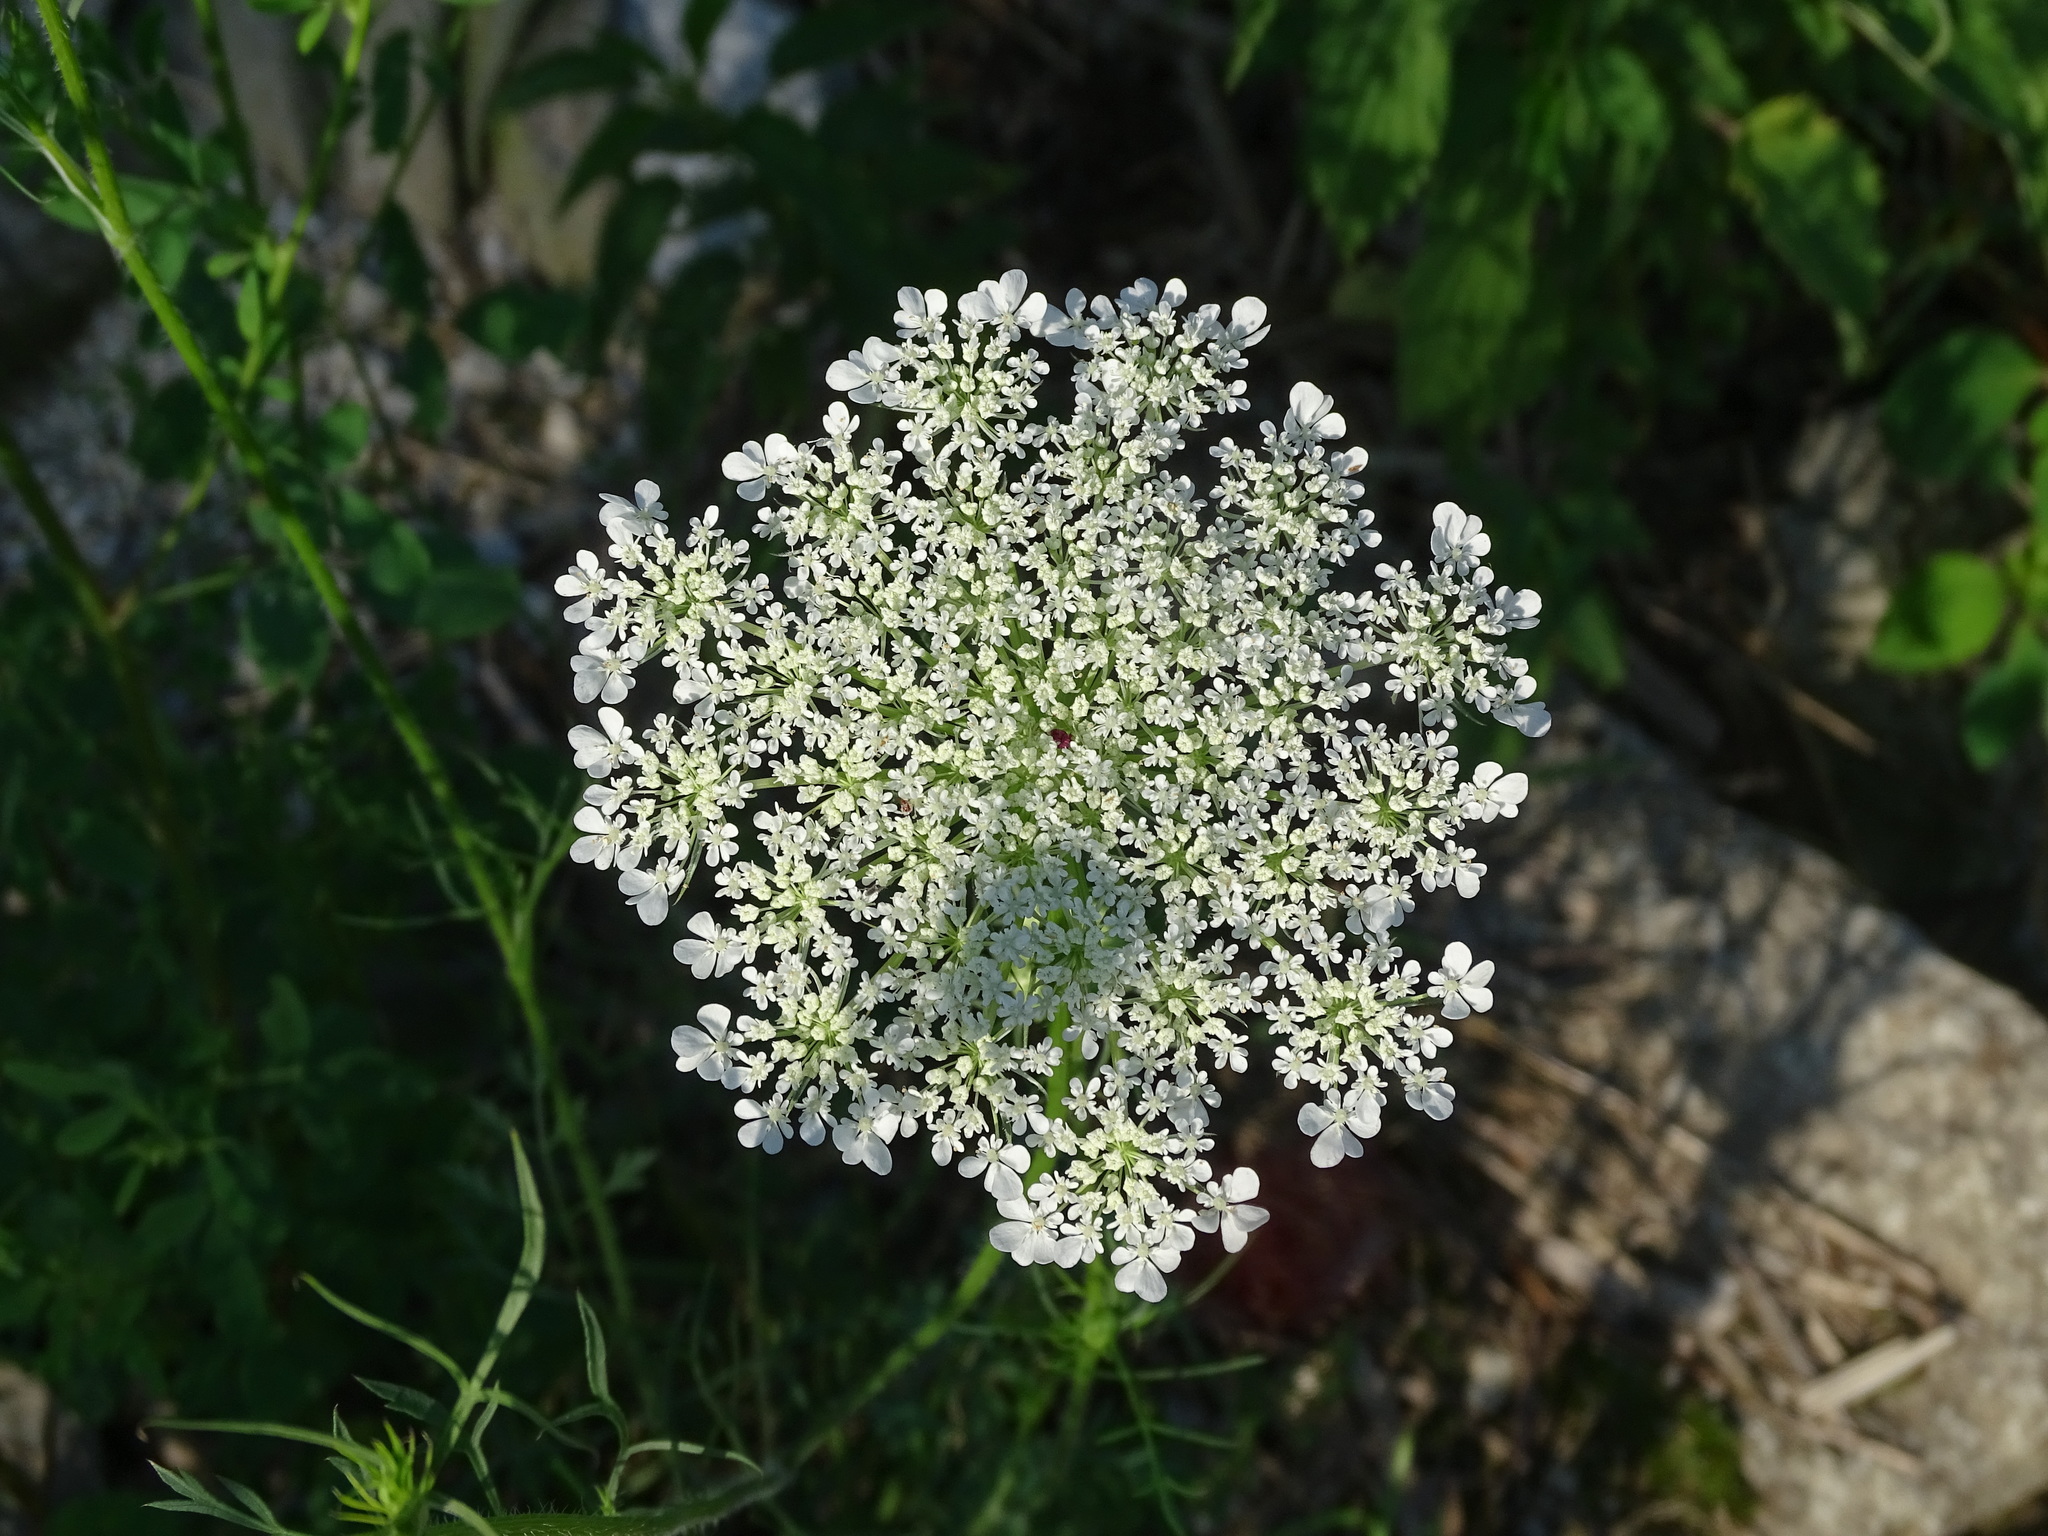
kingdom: Plantae
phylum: Tracheophyta
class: Magnoliopsida
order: Apiales
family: Apiaceae
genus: Daucus
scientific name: Daucus carota
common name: Wild carrot
